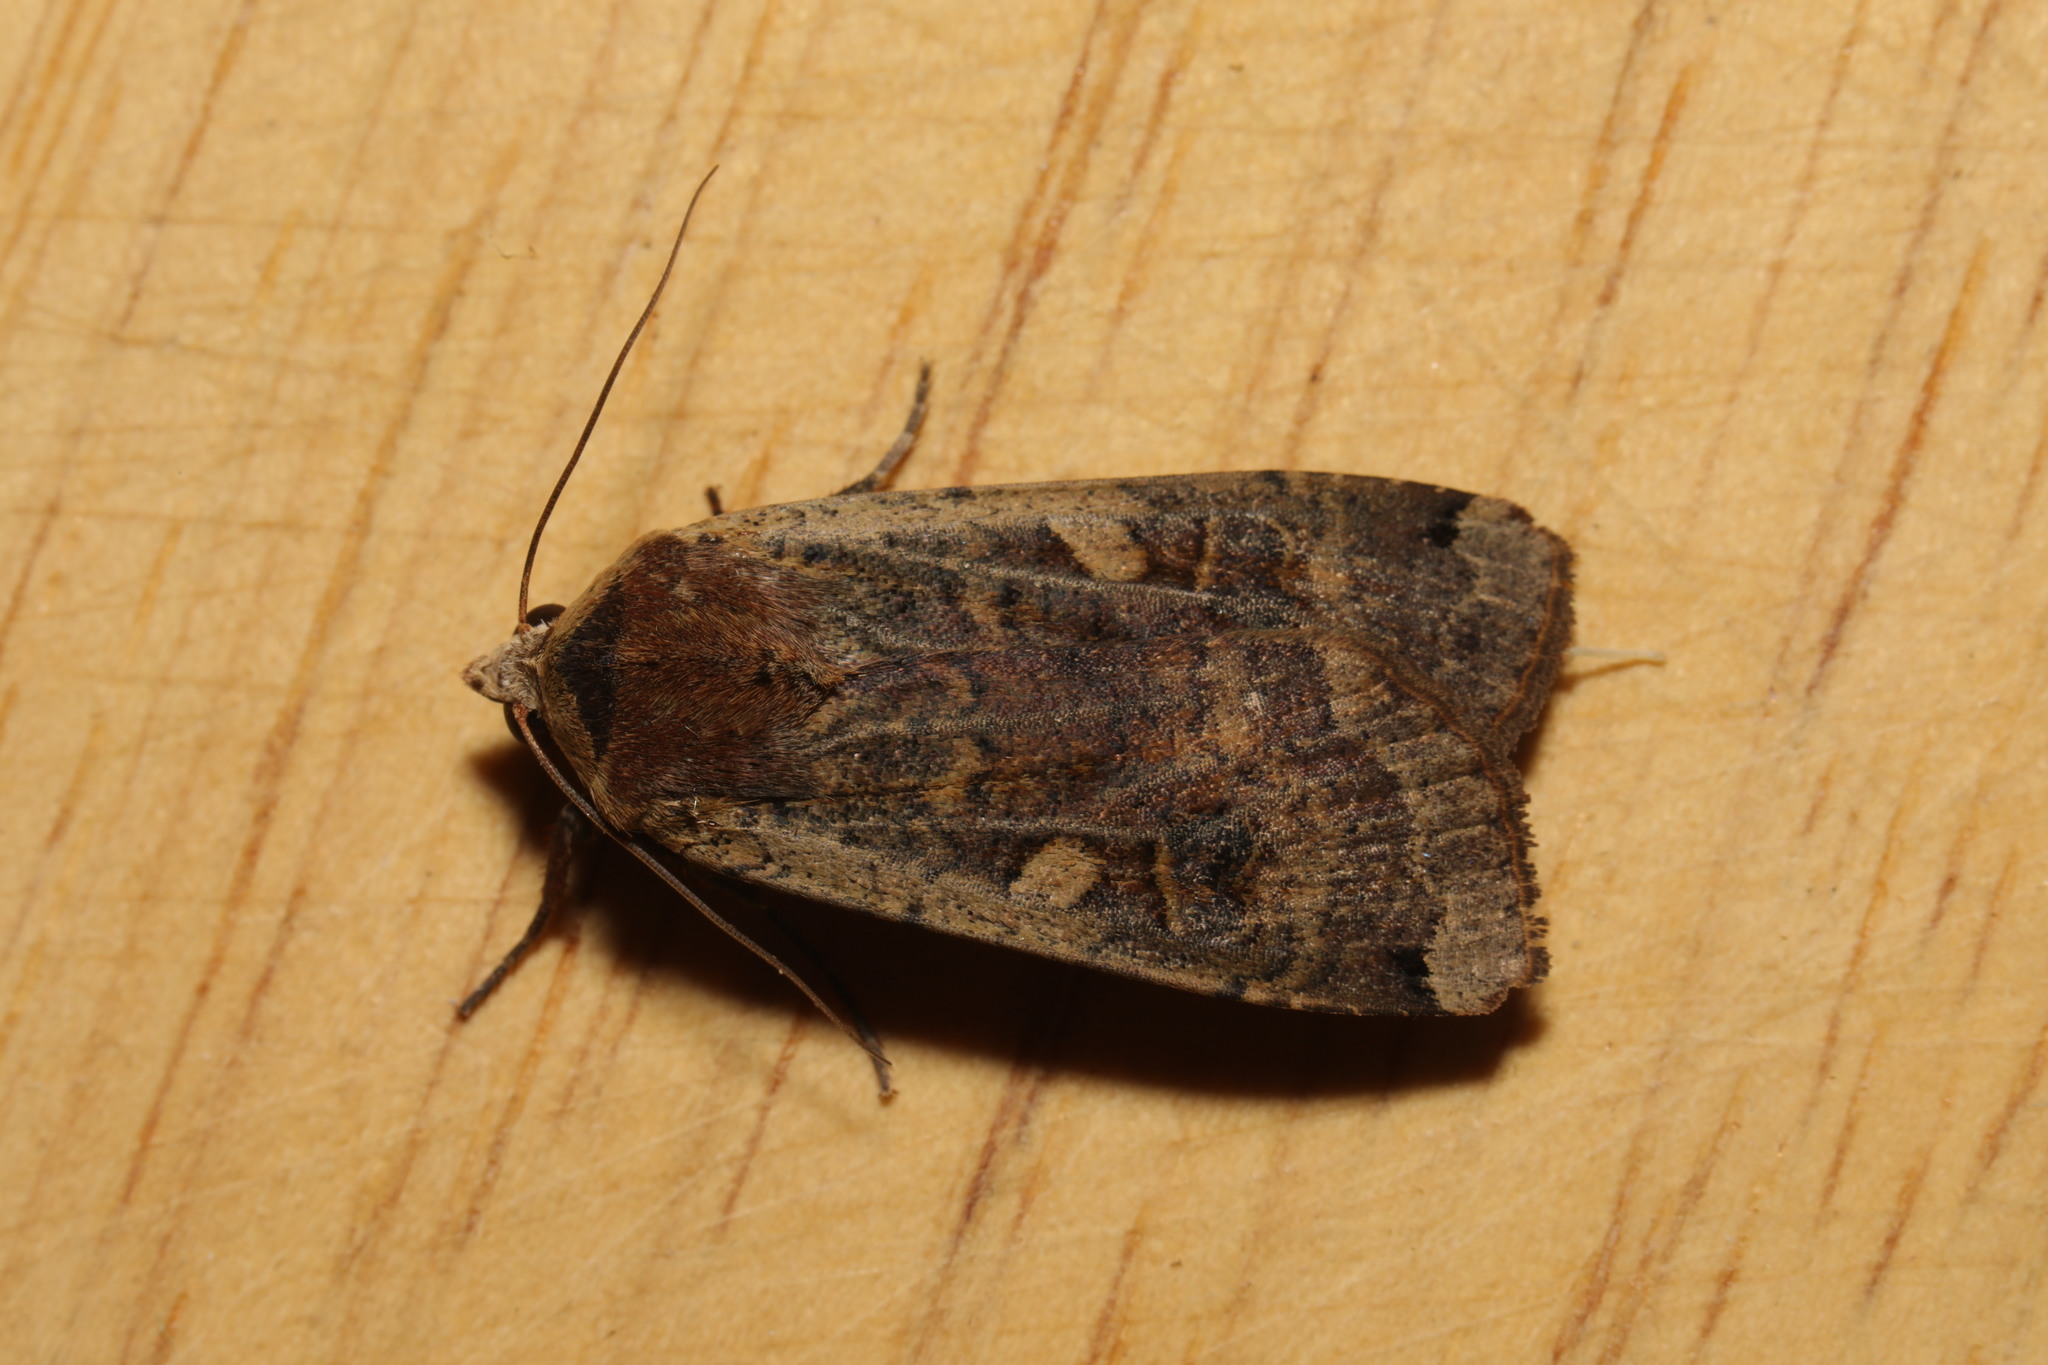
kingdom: Animalia
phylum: Arthropoda
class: Insecta
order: Lepidoptera
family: Noctuidae
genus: Noctua
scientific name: Noctua pronuba
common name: Large yellow underwing
